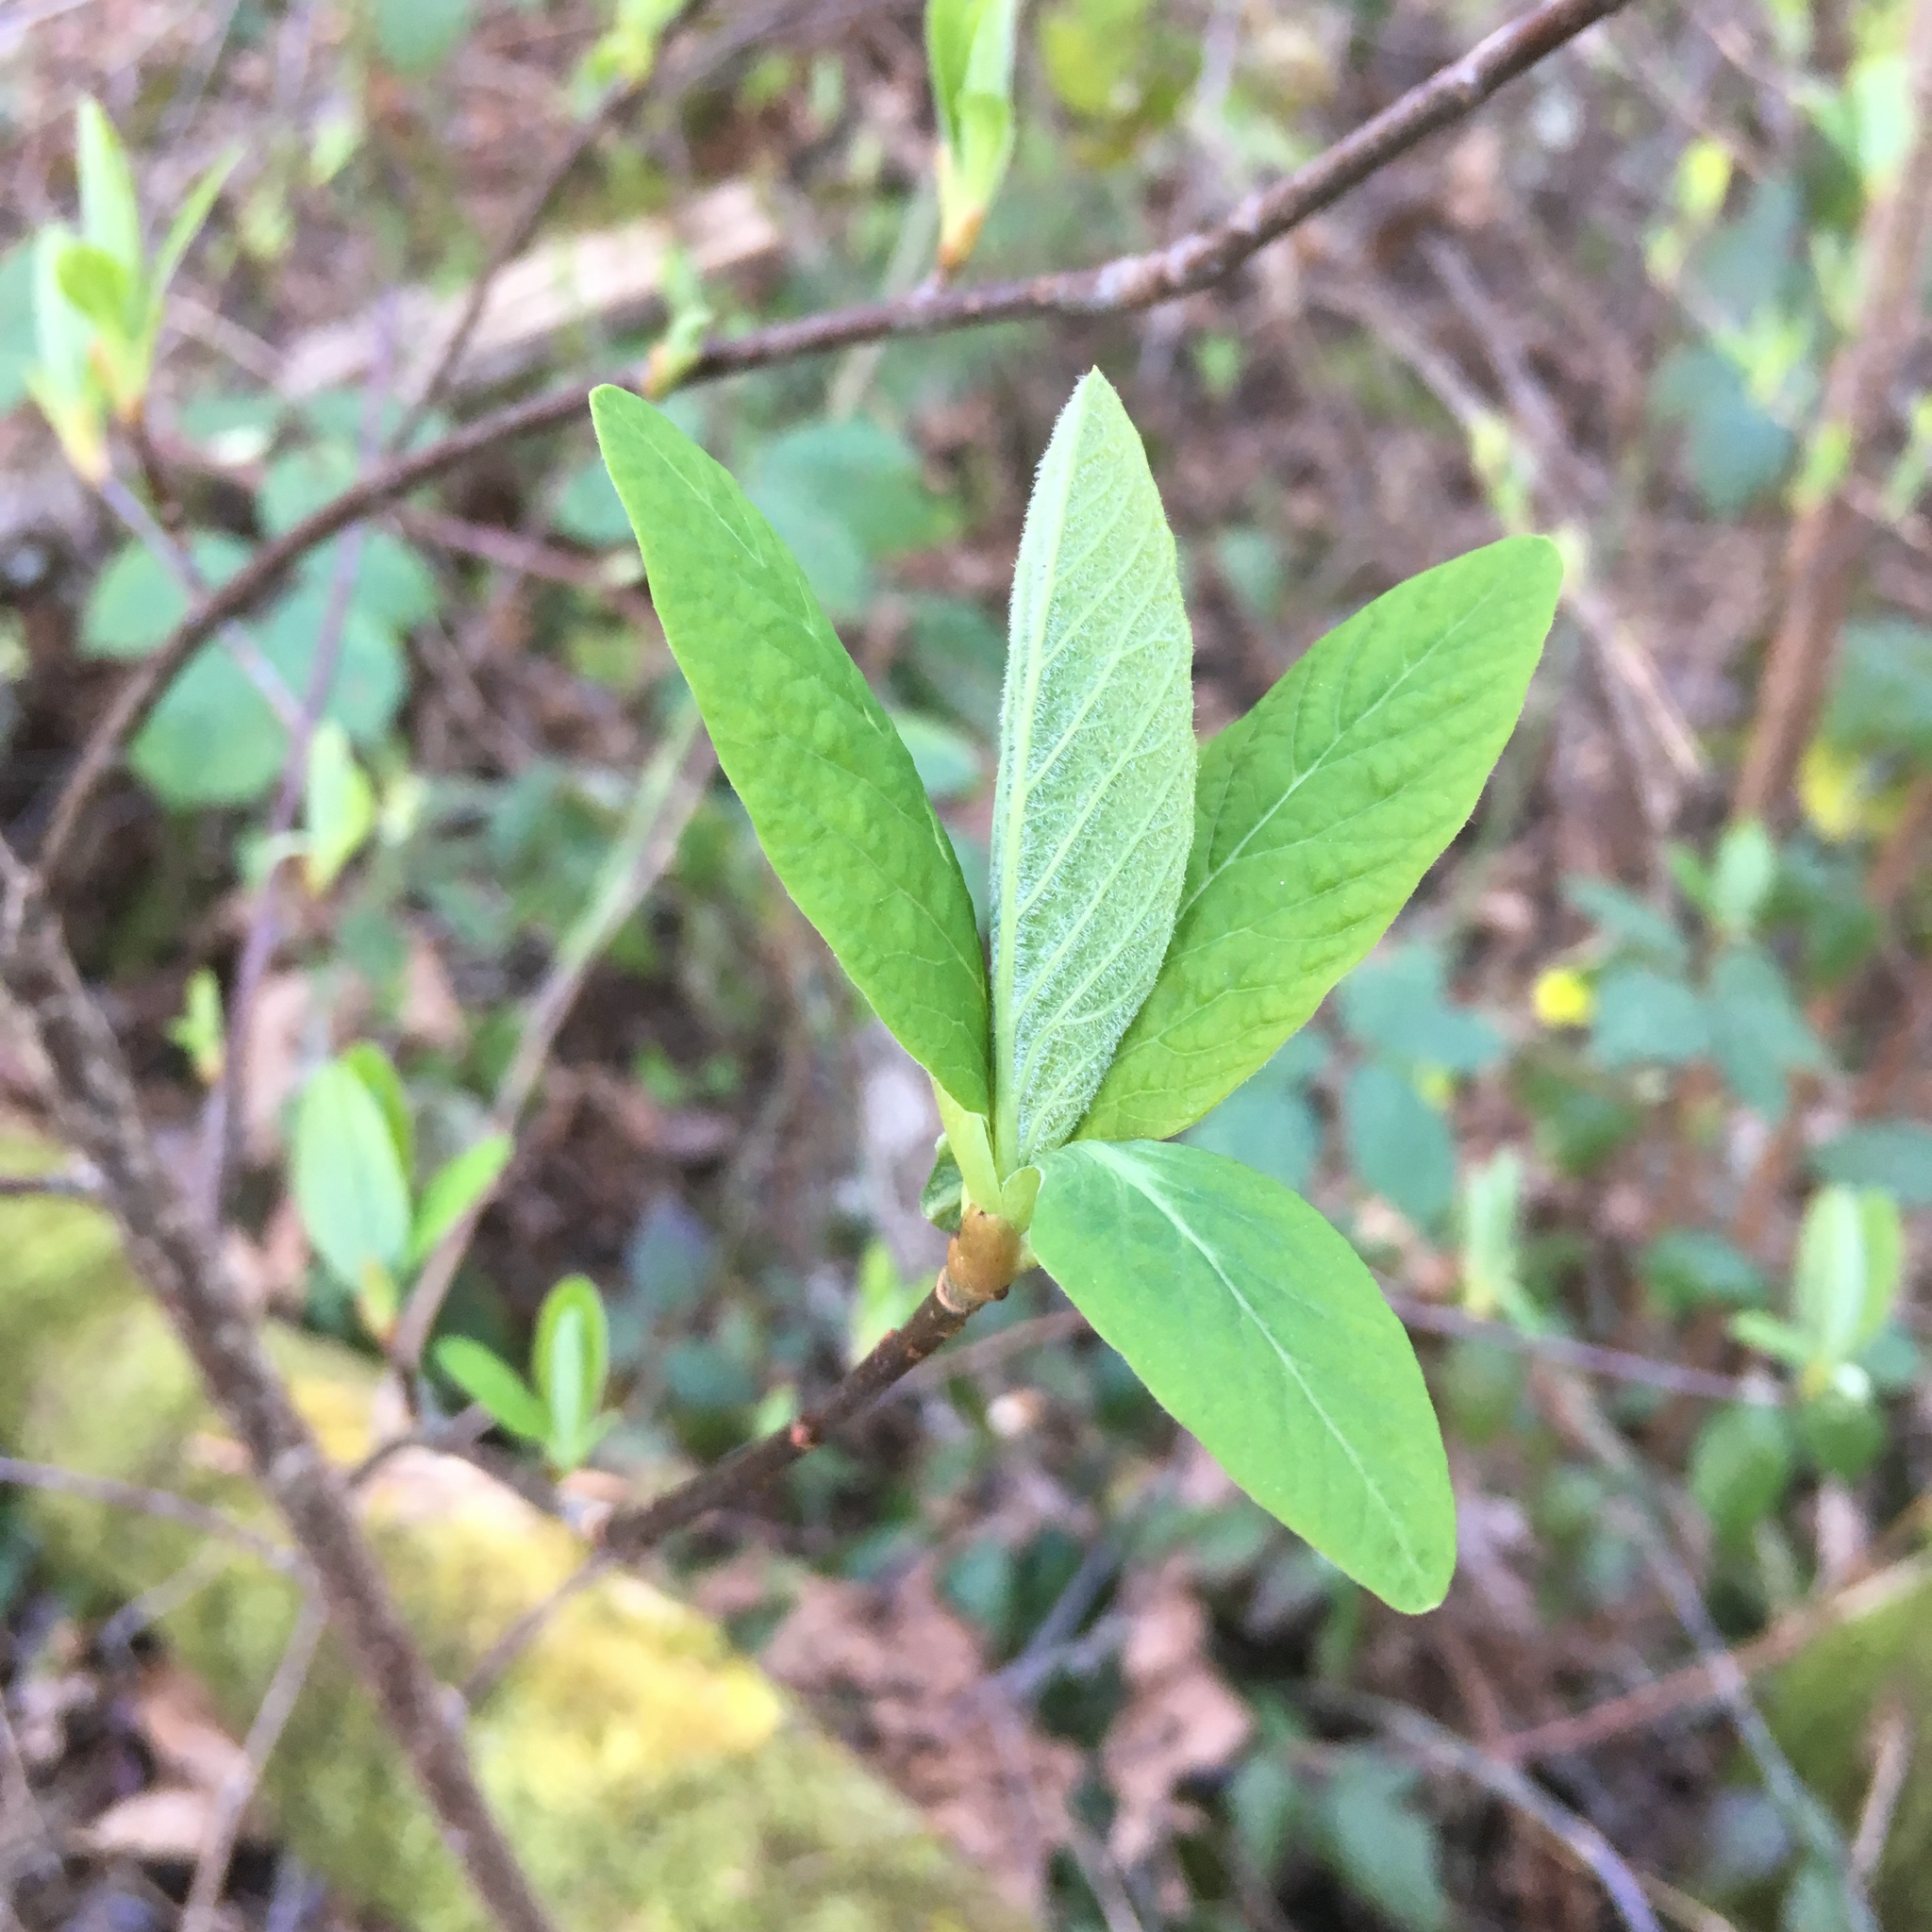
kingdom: Plantae
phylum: Tracheophyta
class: Magnoliopsida
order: Rosales
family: Rosaceae
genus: Oemleria
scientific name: Oemleria cerasiformis
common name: Osoberry
